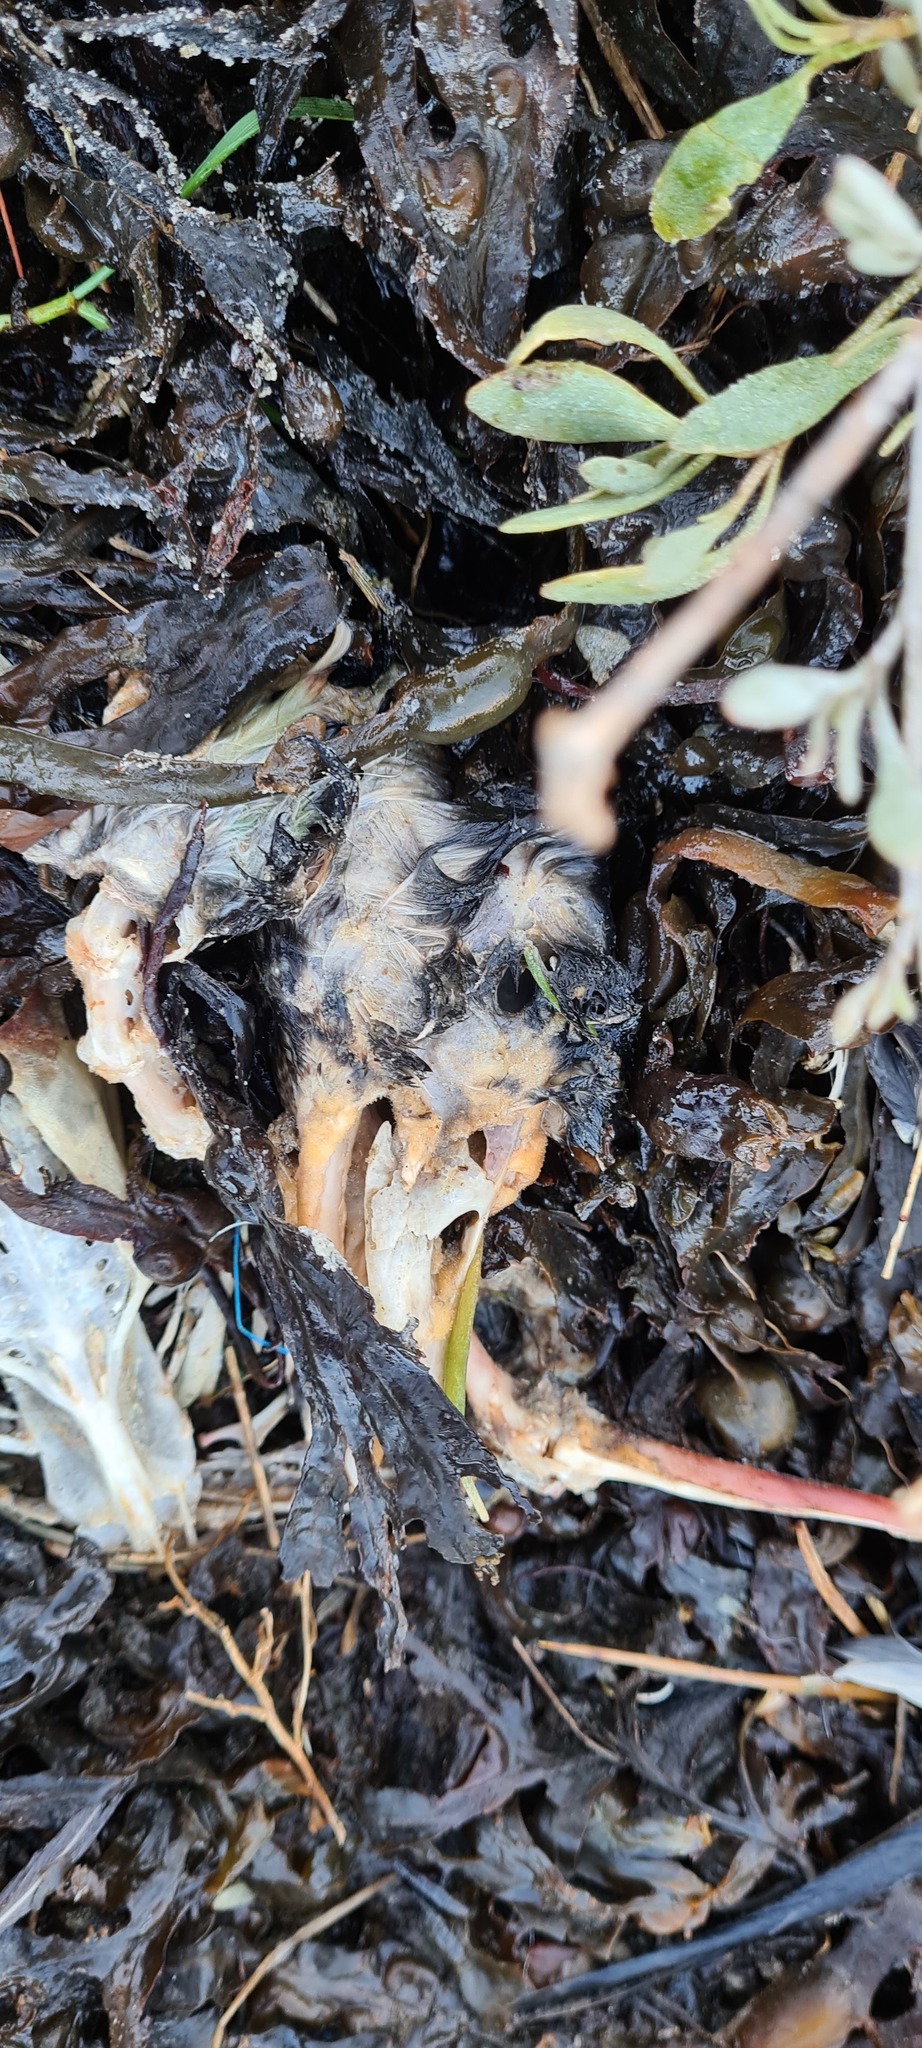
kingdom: Animalia
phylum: Chordata
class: Aves
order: Anseriformes
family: Anatidae
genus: Tadorna
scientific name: Tadorna tadorna
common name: Common shelduck
